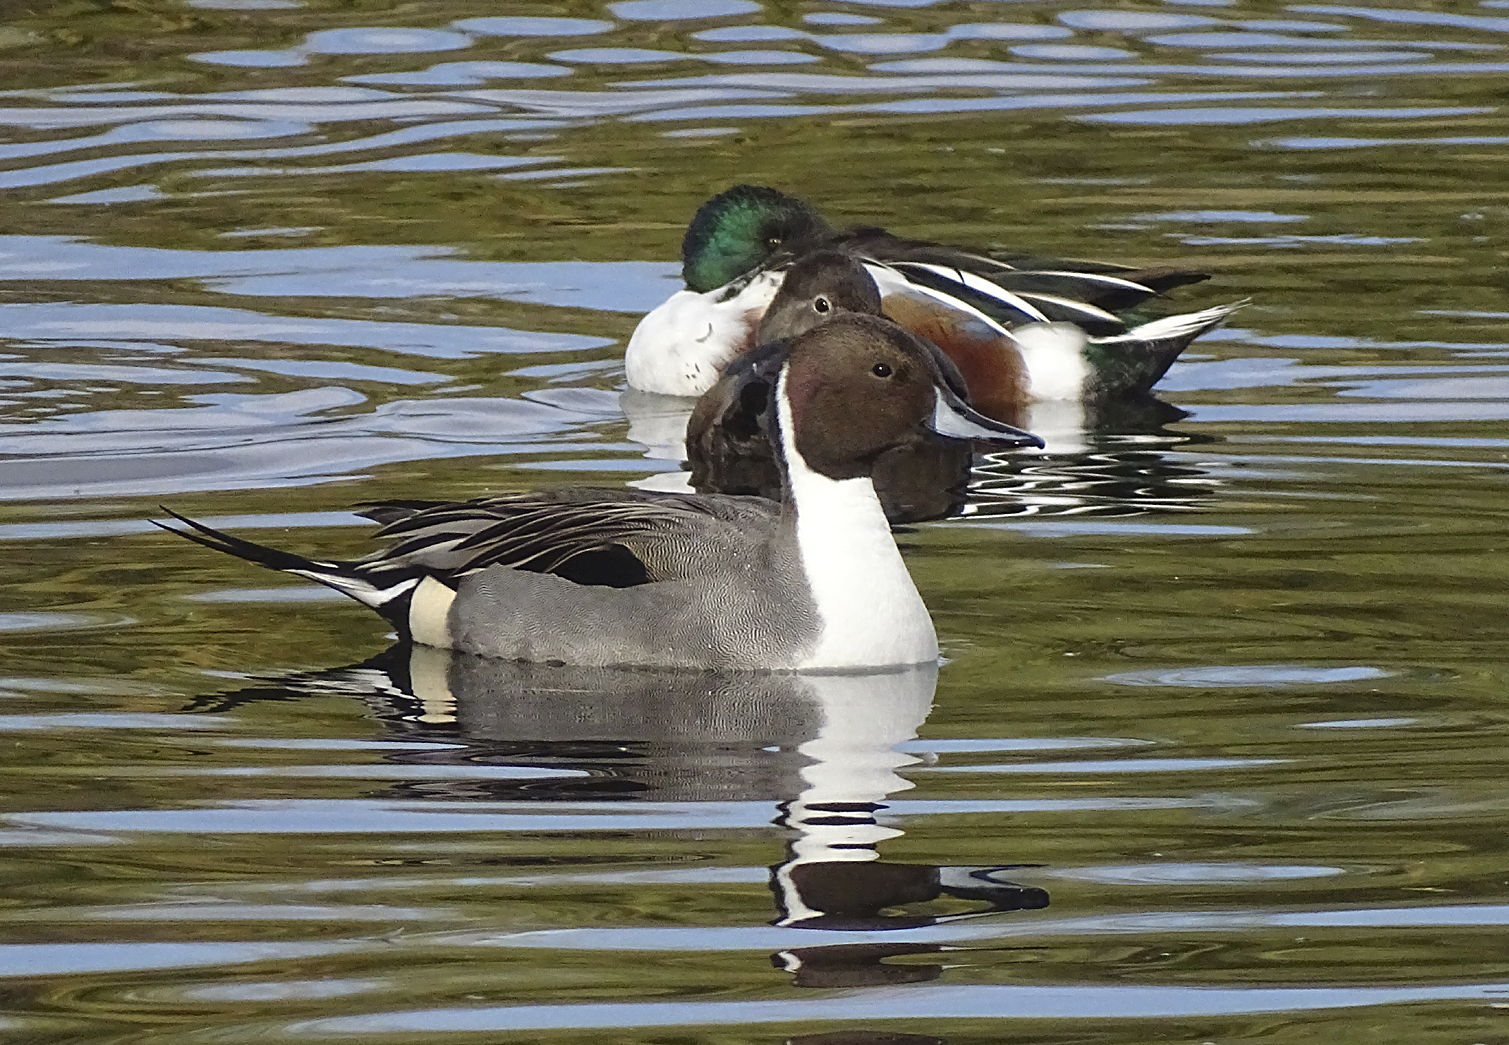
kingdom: Animalia
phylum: Chordata
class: Aves
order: Anseriformes
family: Anatidae
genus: Anas
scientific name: Anas acuta
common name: Northern pintail
